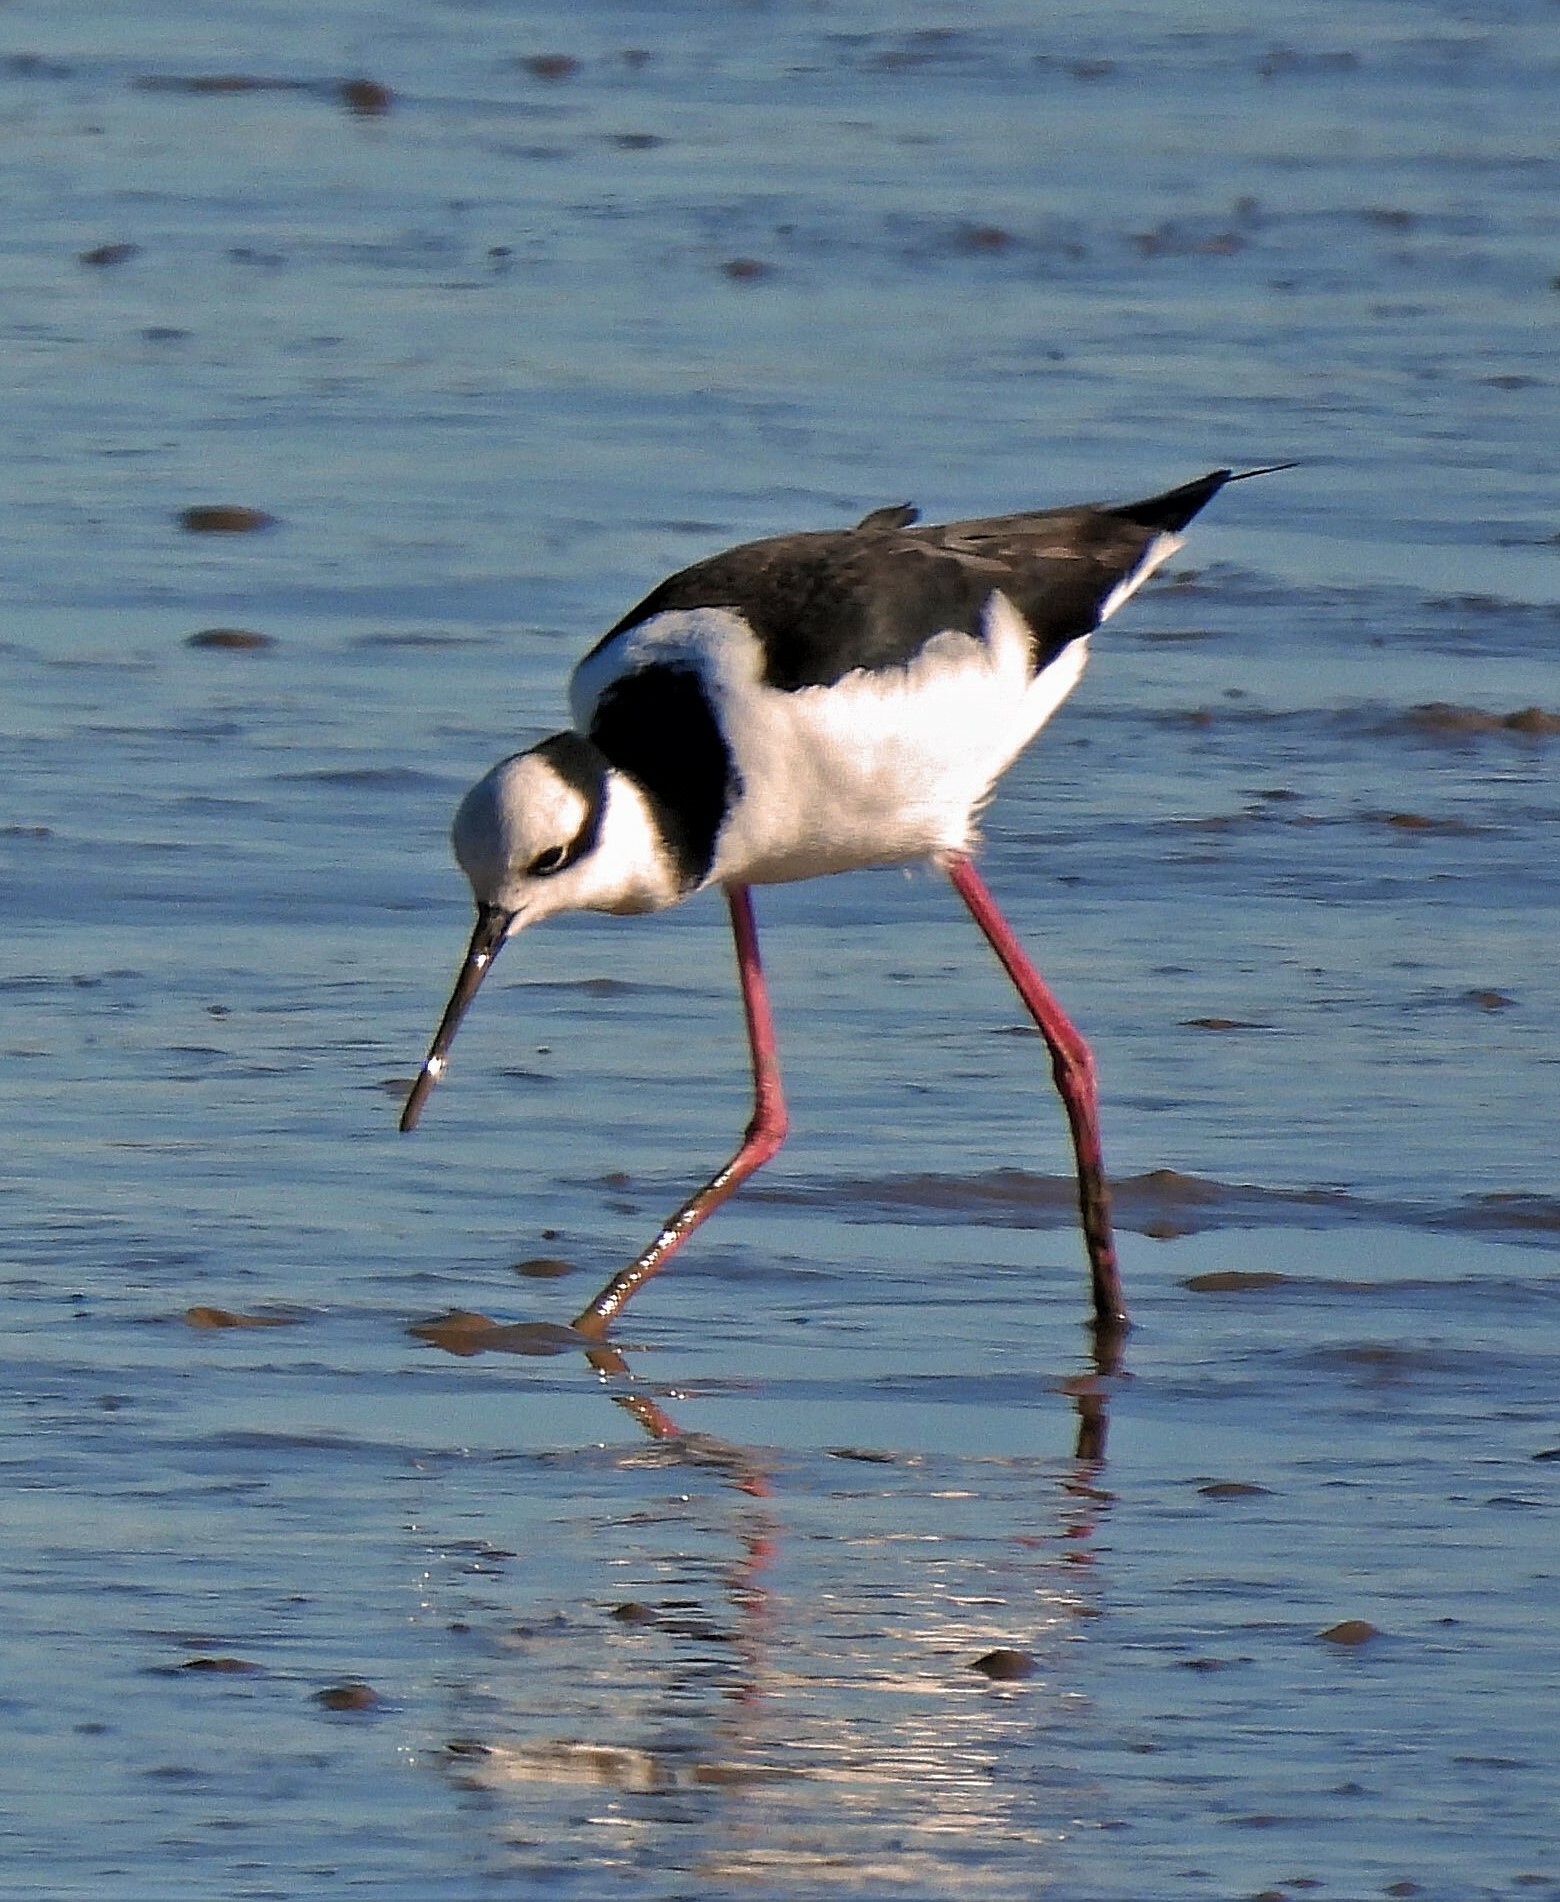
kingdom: Animalia
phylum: Chordata
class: Aves
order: Charadriiformes
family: Recurvirostridae
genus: Himantopus
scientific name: Himantopus mexicanus
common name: Black-necked stilt
